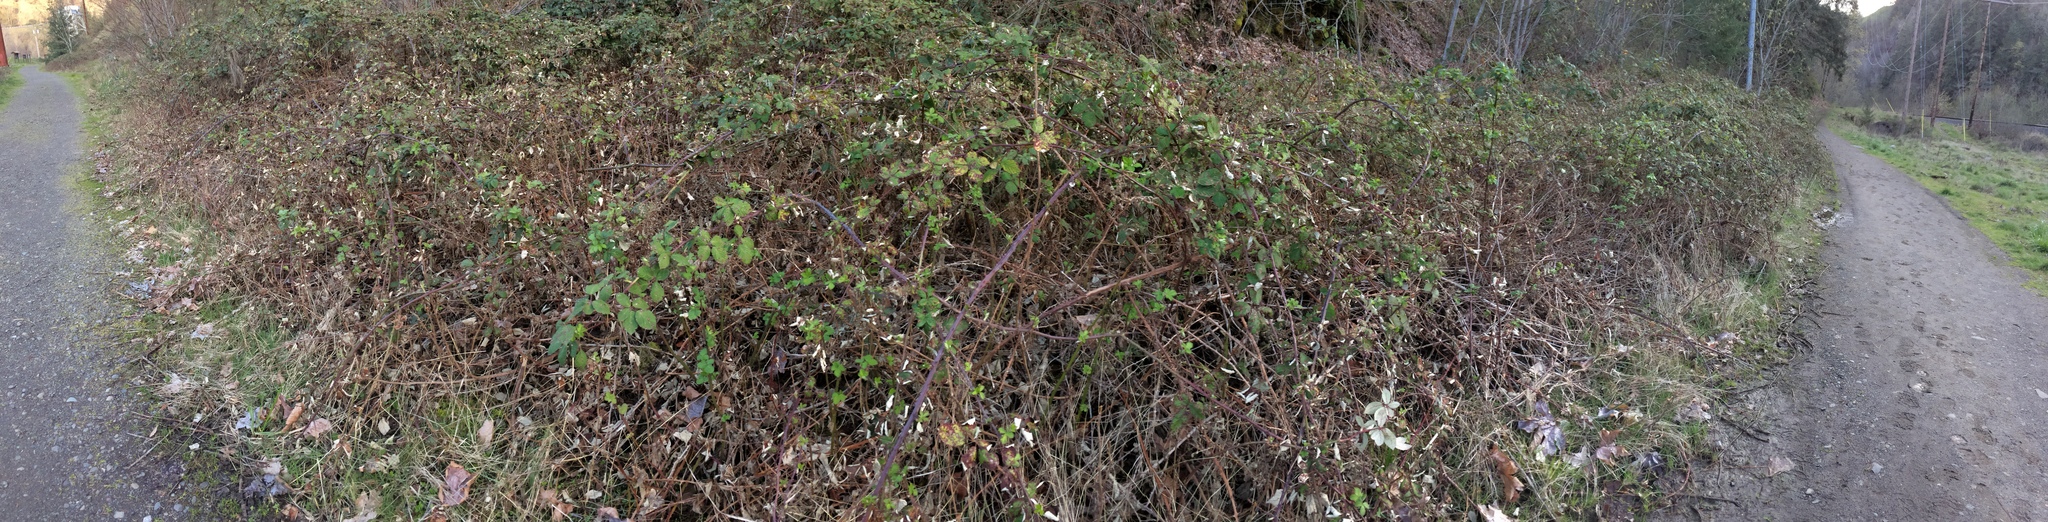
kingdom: Plantae
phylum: Tracheophyta
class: Magnoliopsida
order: Rosales
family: Rosaceae
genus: Rubus
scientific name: Rubus armeniacus
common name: Himalayan blackberry
